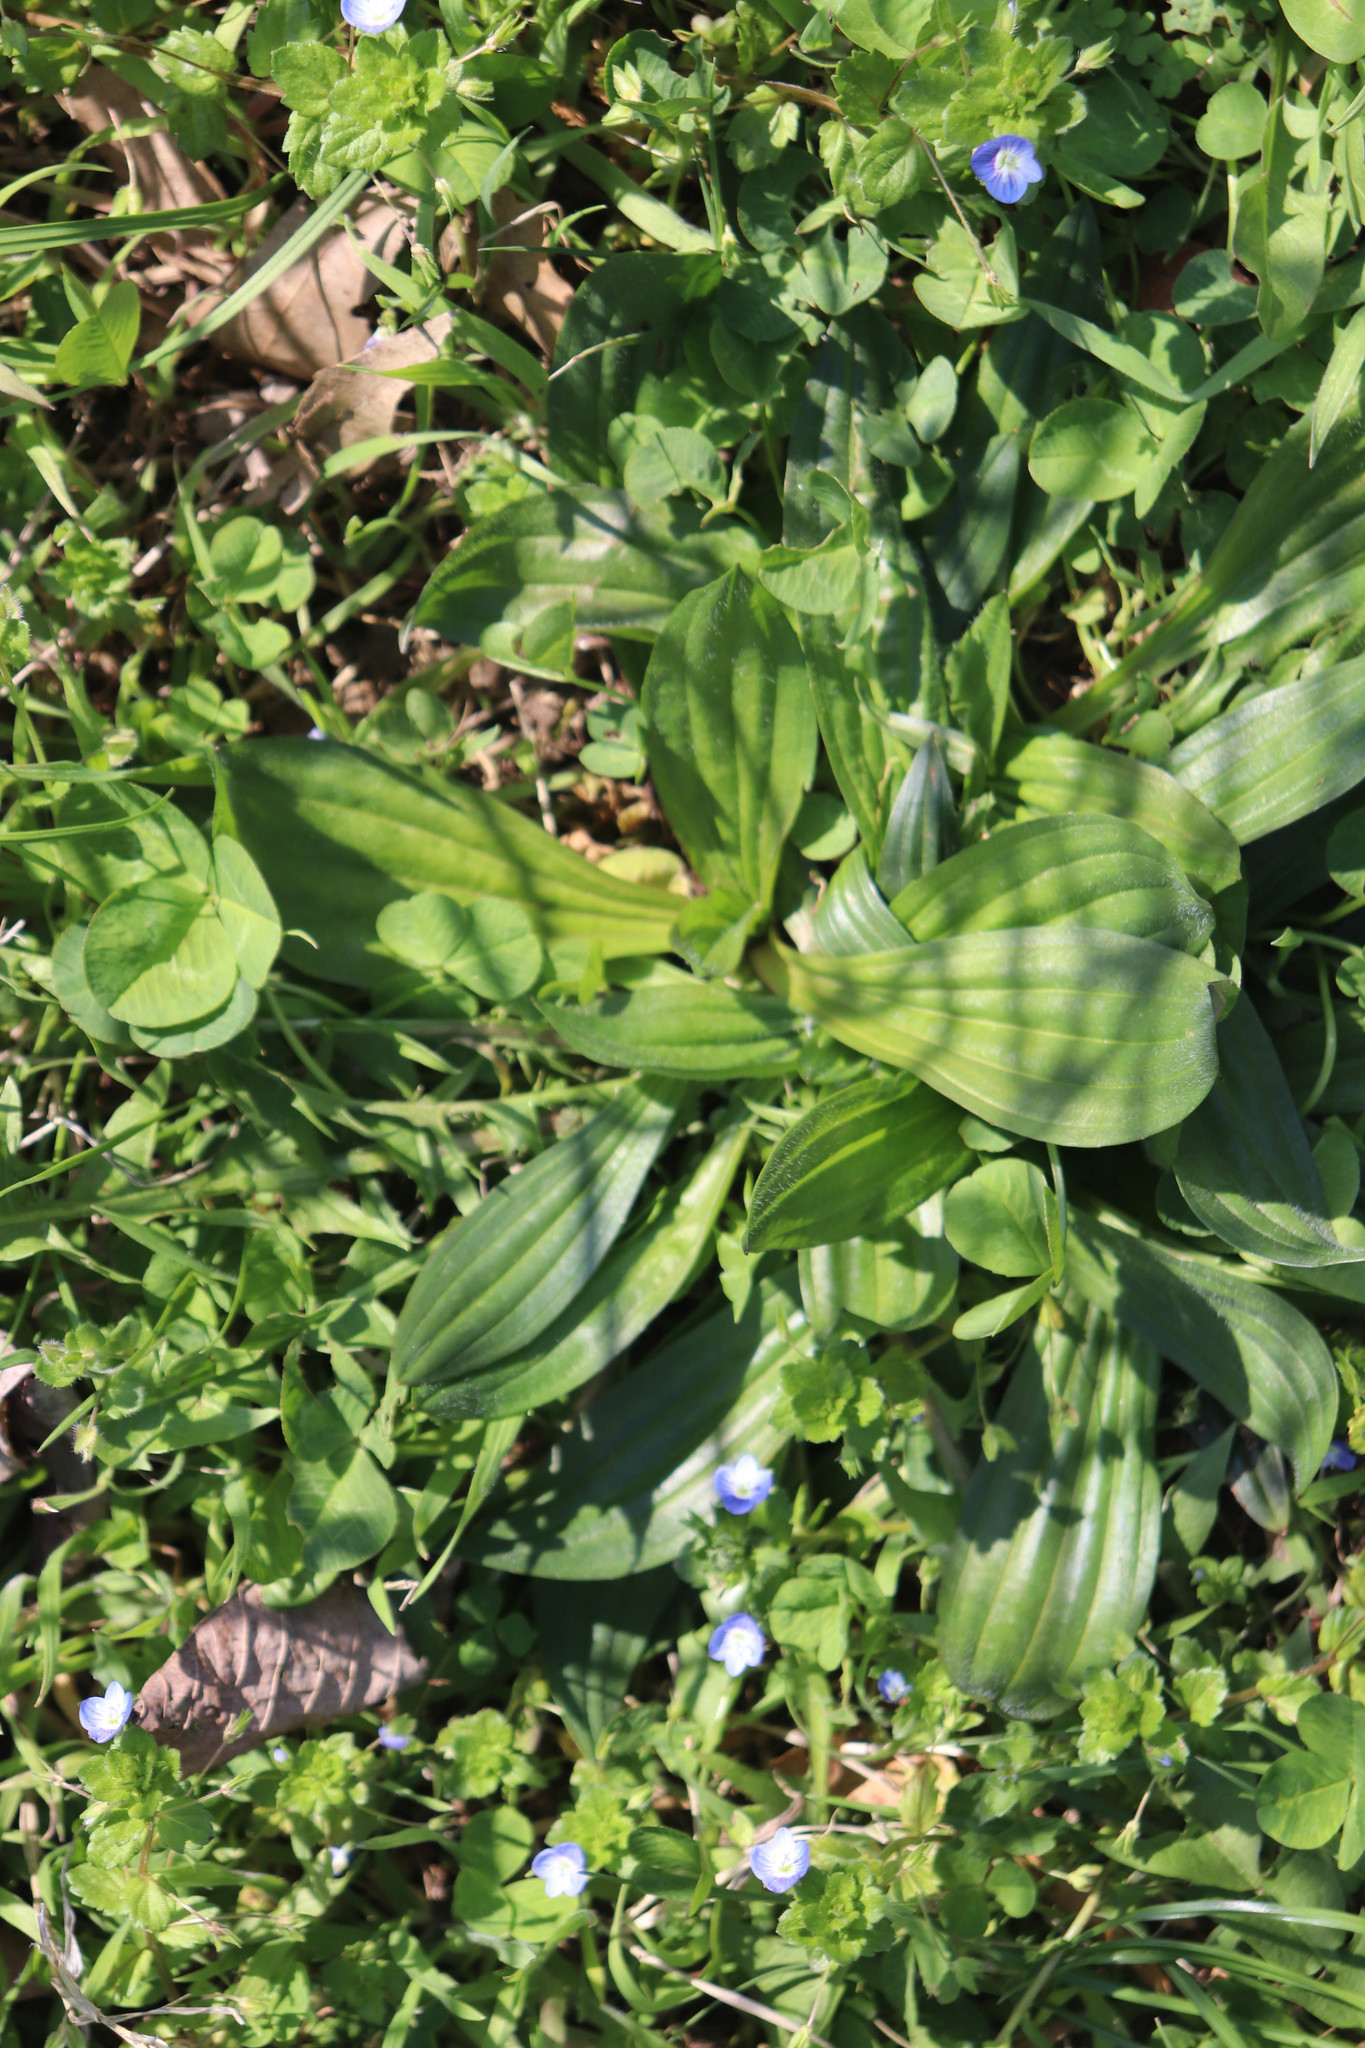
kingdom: Plantae
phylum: Tracheophyta
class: Magnoliopsida
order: Lamiales
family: Plantaginaceae
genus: Plantago
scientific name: Plantago lanceolata
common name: Ribwort plantain
